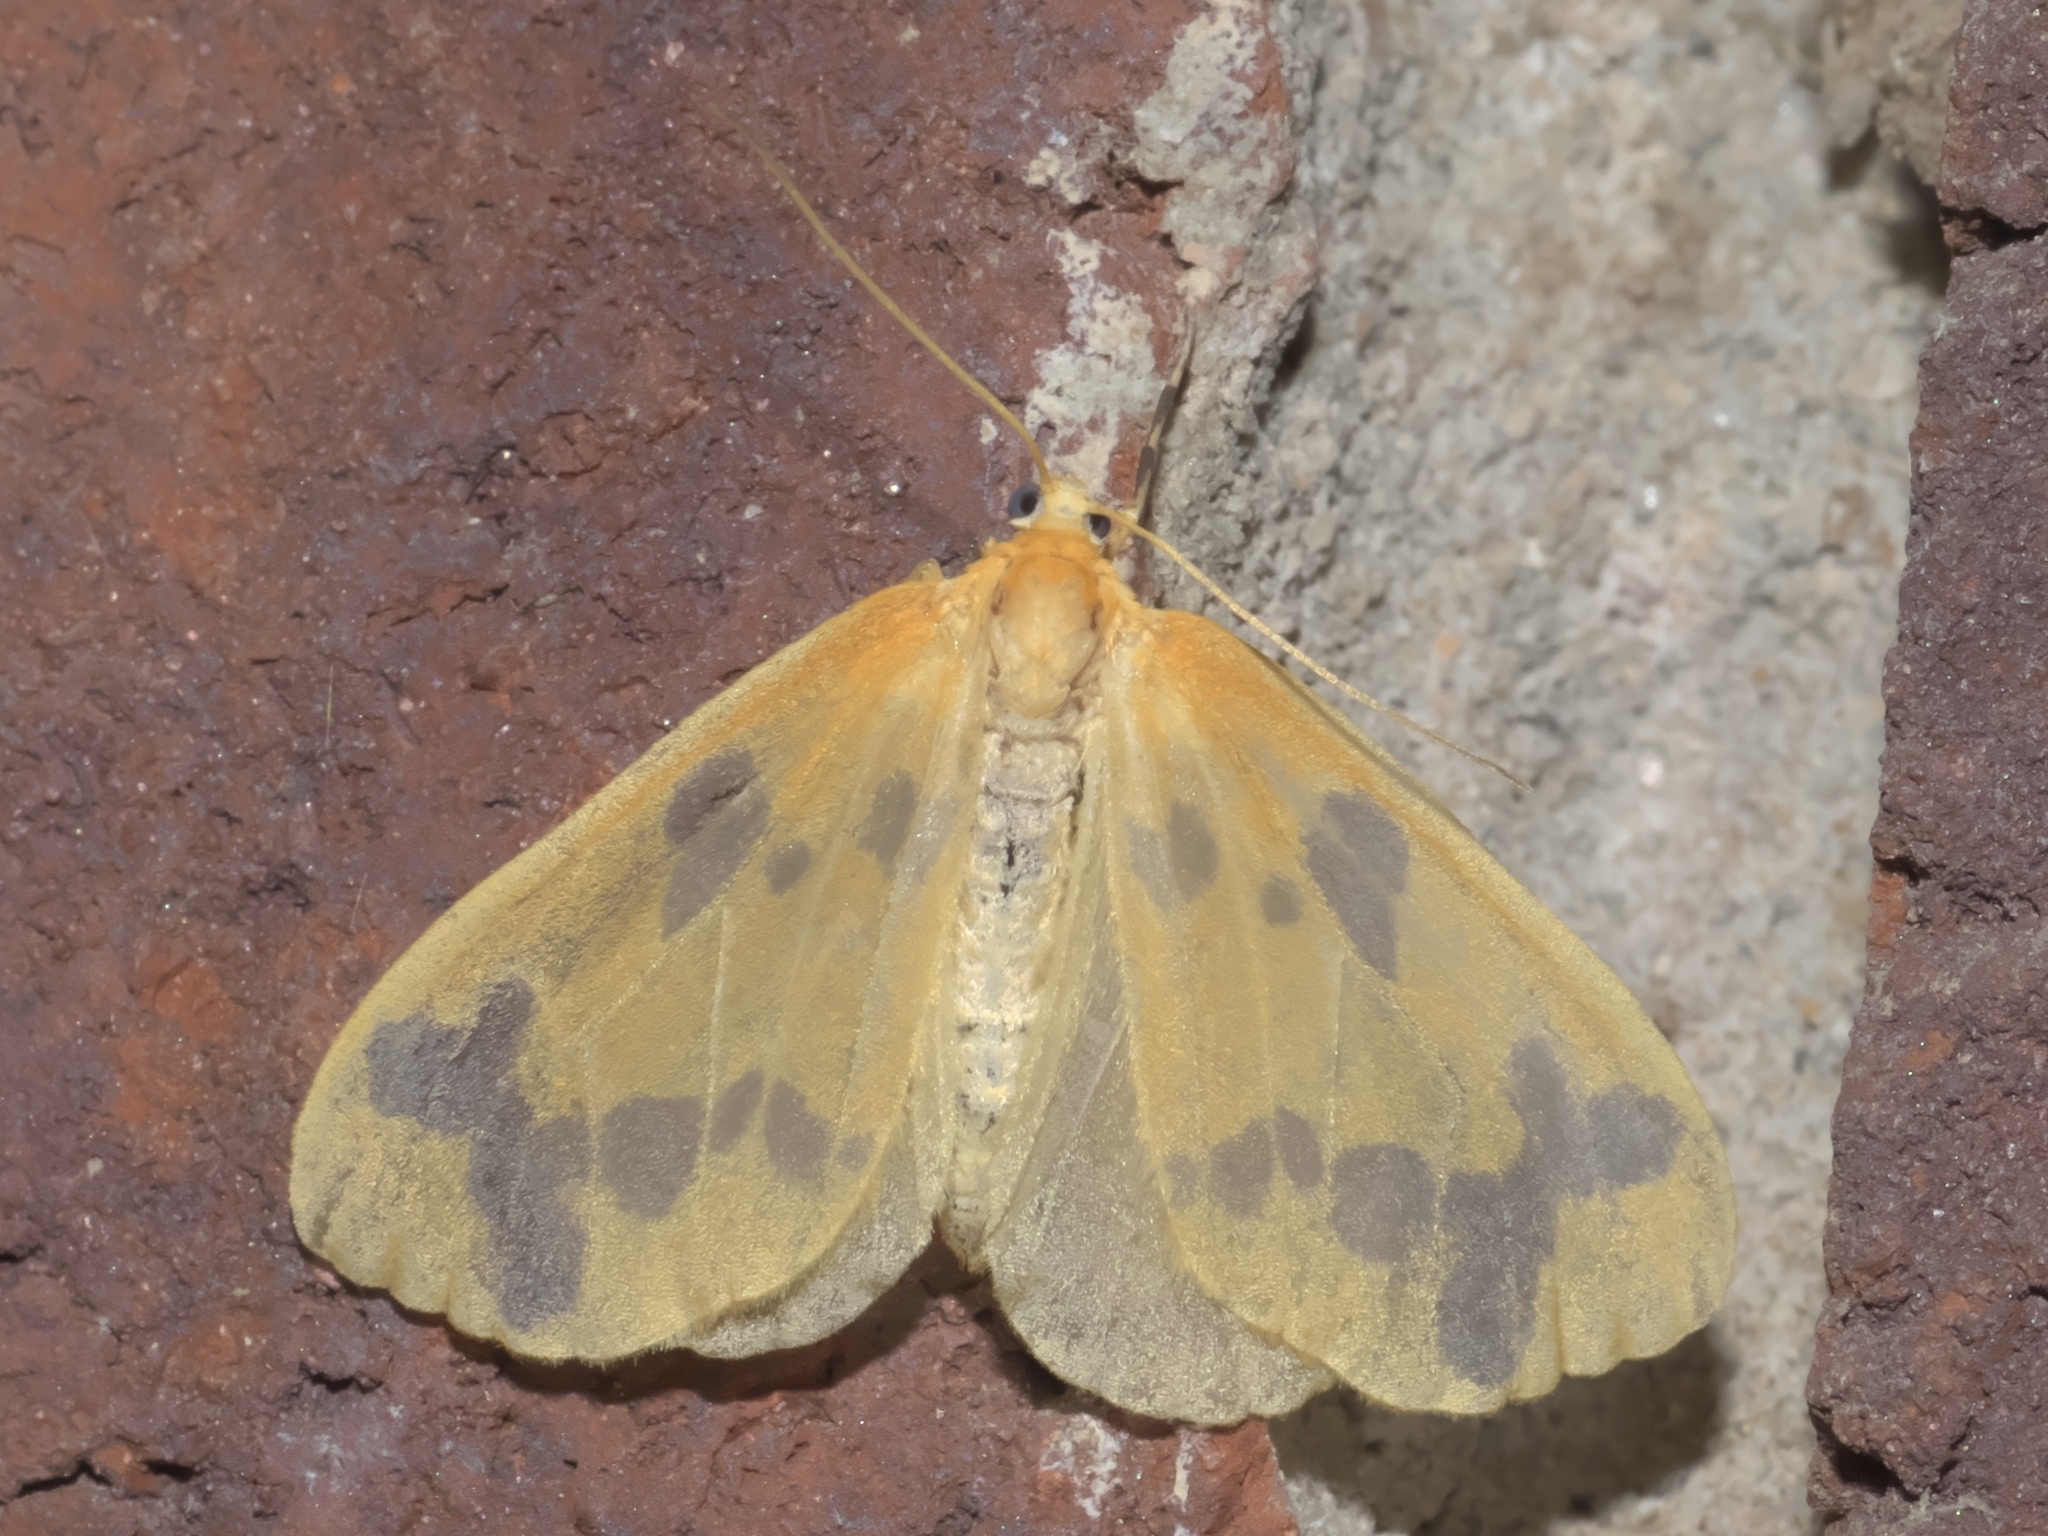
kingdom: Animalia
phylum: Arthropoda
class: Insecta
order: Lepidoptera
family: Geometridae
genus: Eubaphe
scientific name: Eubaphe mendica
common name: Beggar
